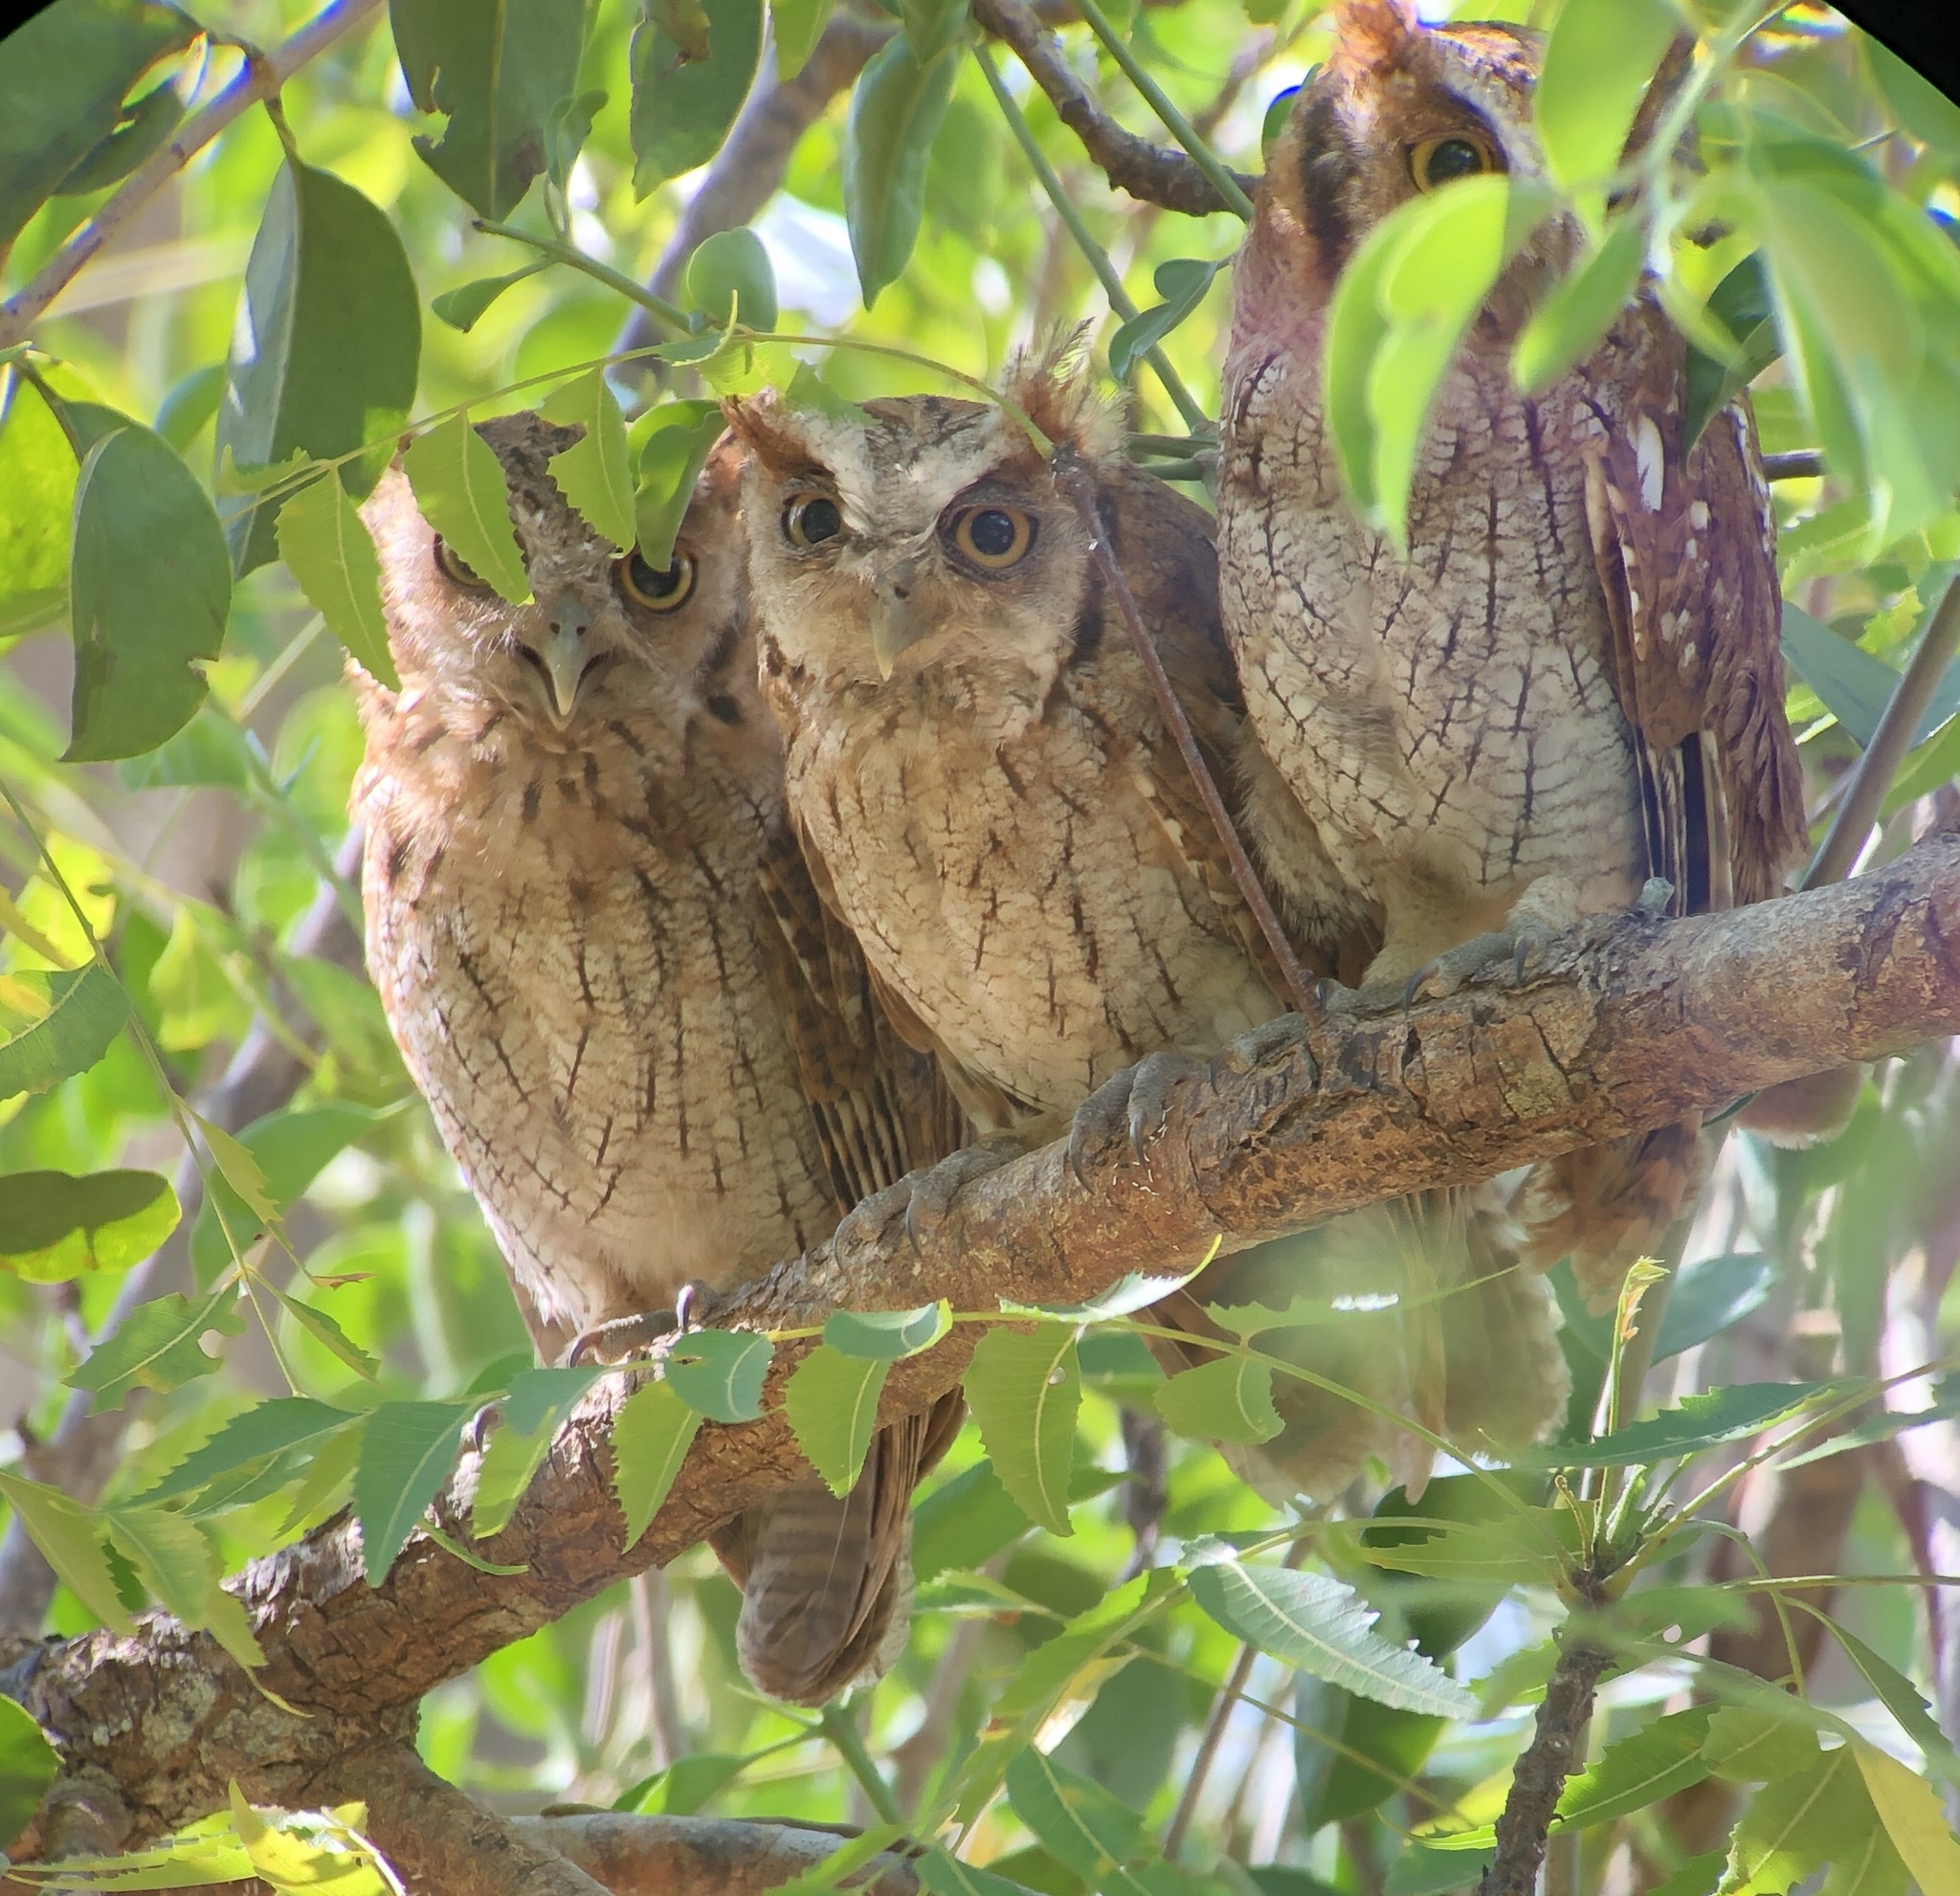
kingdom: Animalia
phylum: Chordata
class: Aves
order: Strigiformes
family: Strigidae
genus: Megascops
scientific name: Megascops choliba
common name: Tropical screech-owl
